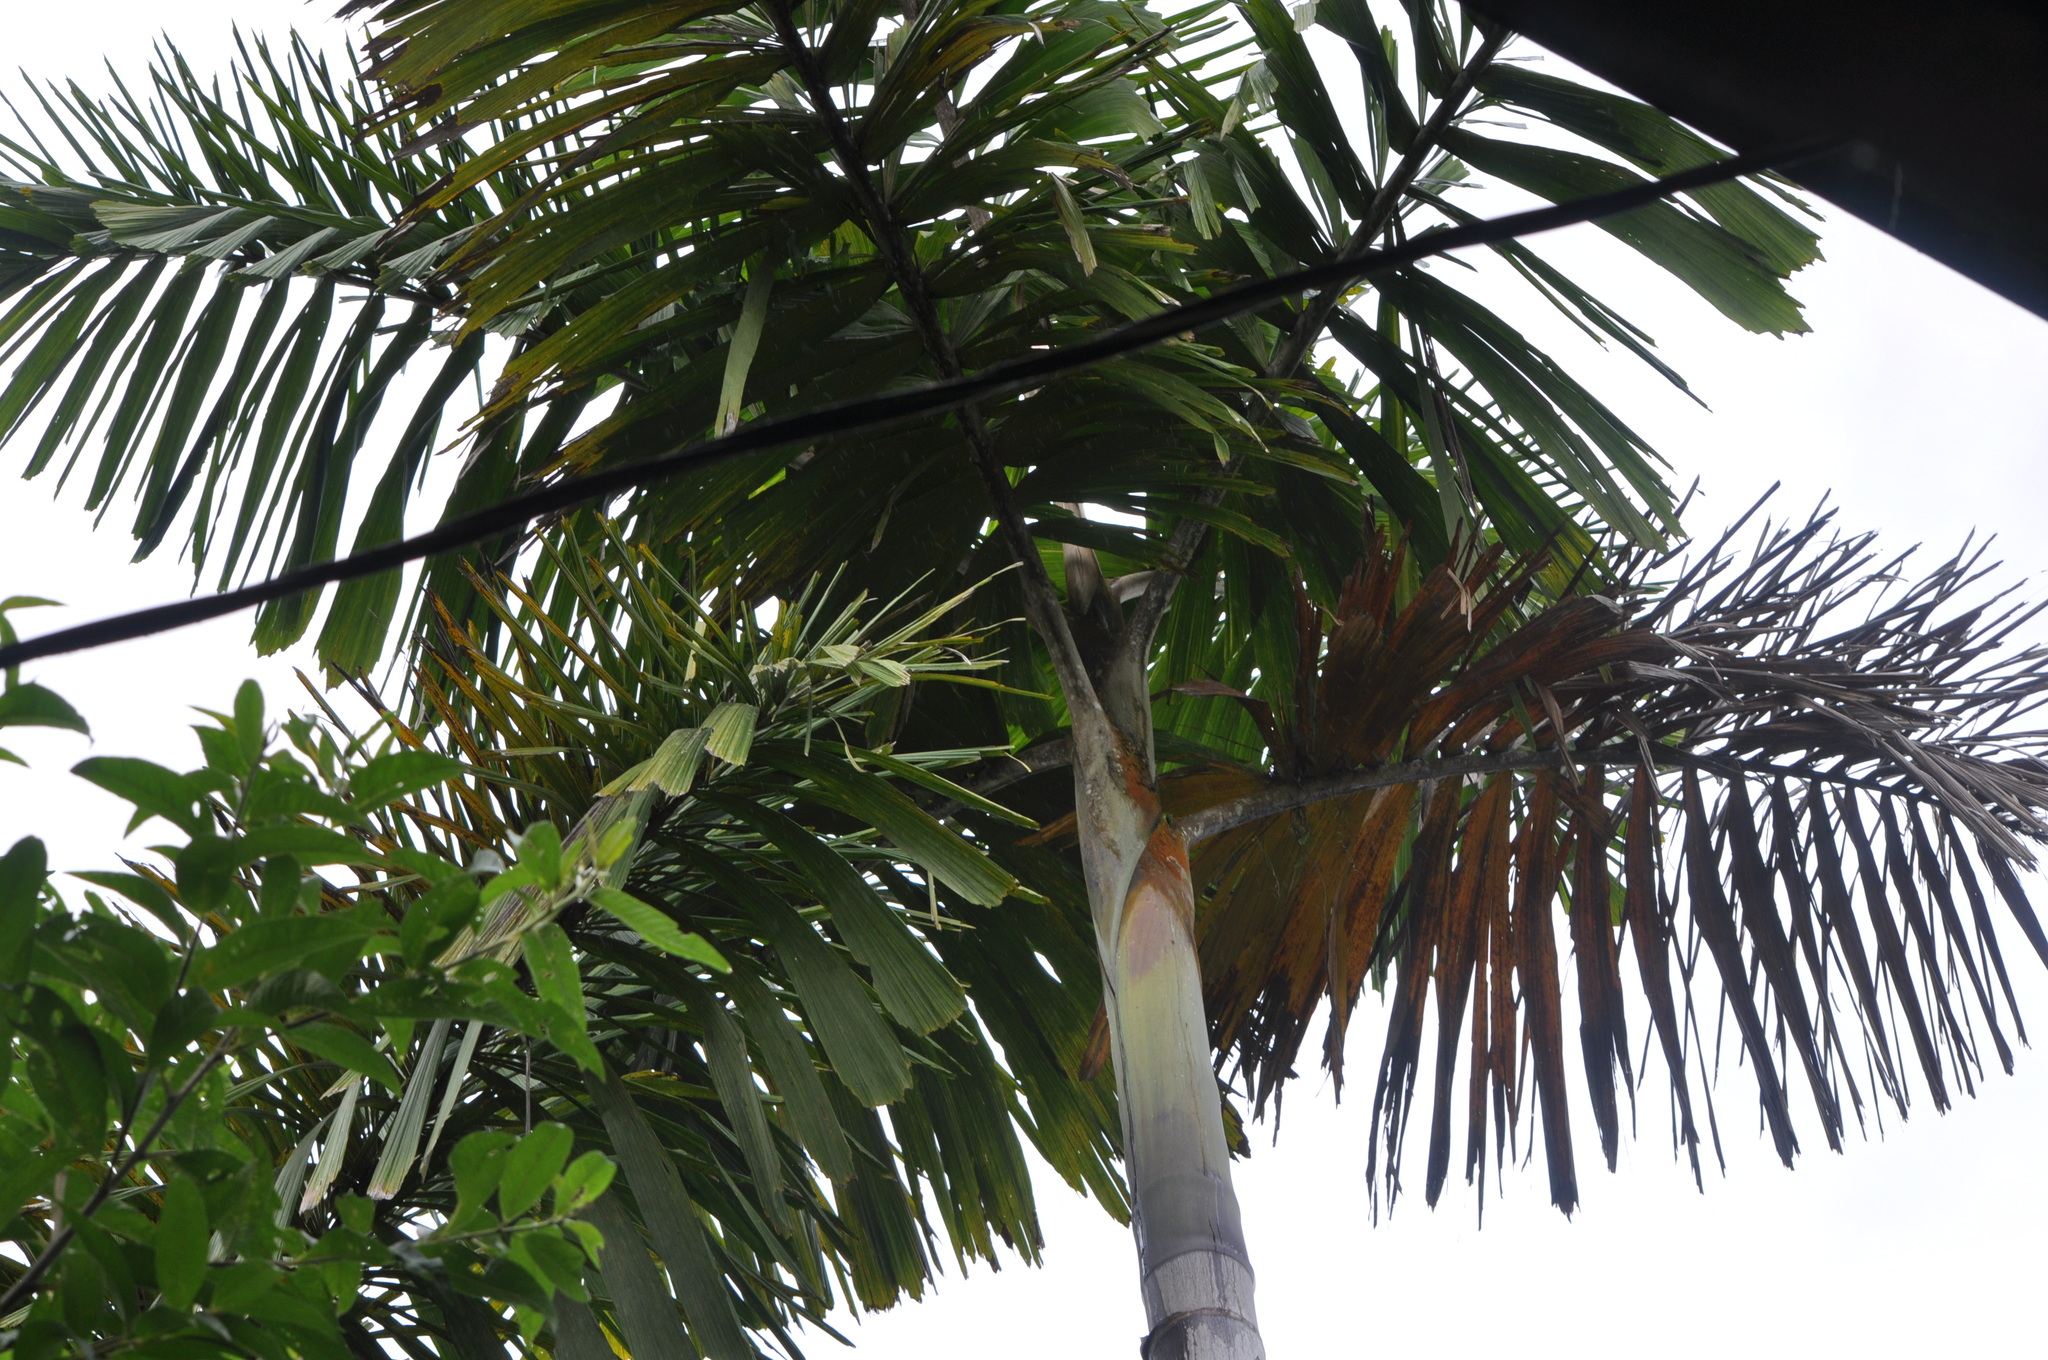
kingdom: Plantae
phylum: Tracheophyta
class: Liliopsida
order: Arecales
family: Arecaceae
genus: Iriartea
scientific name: Iriartea deltoidea
